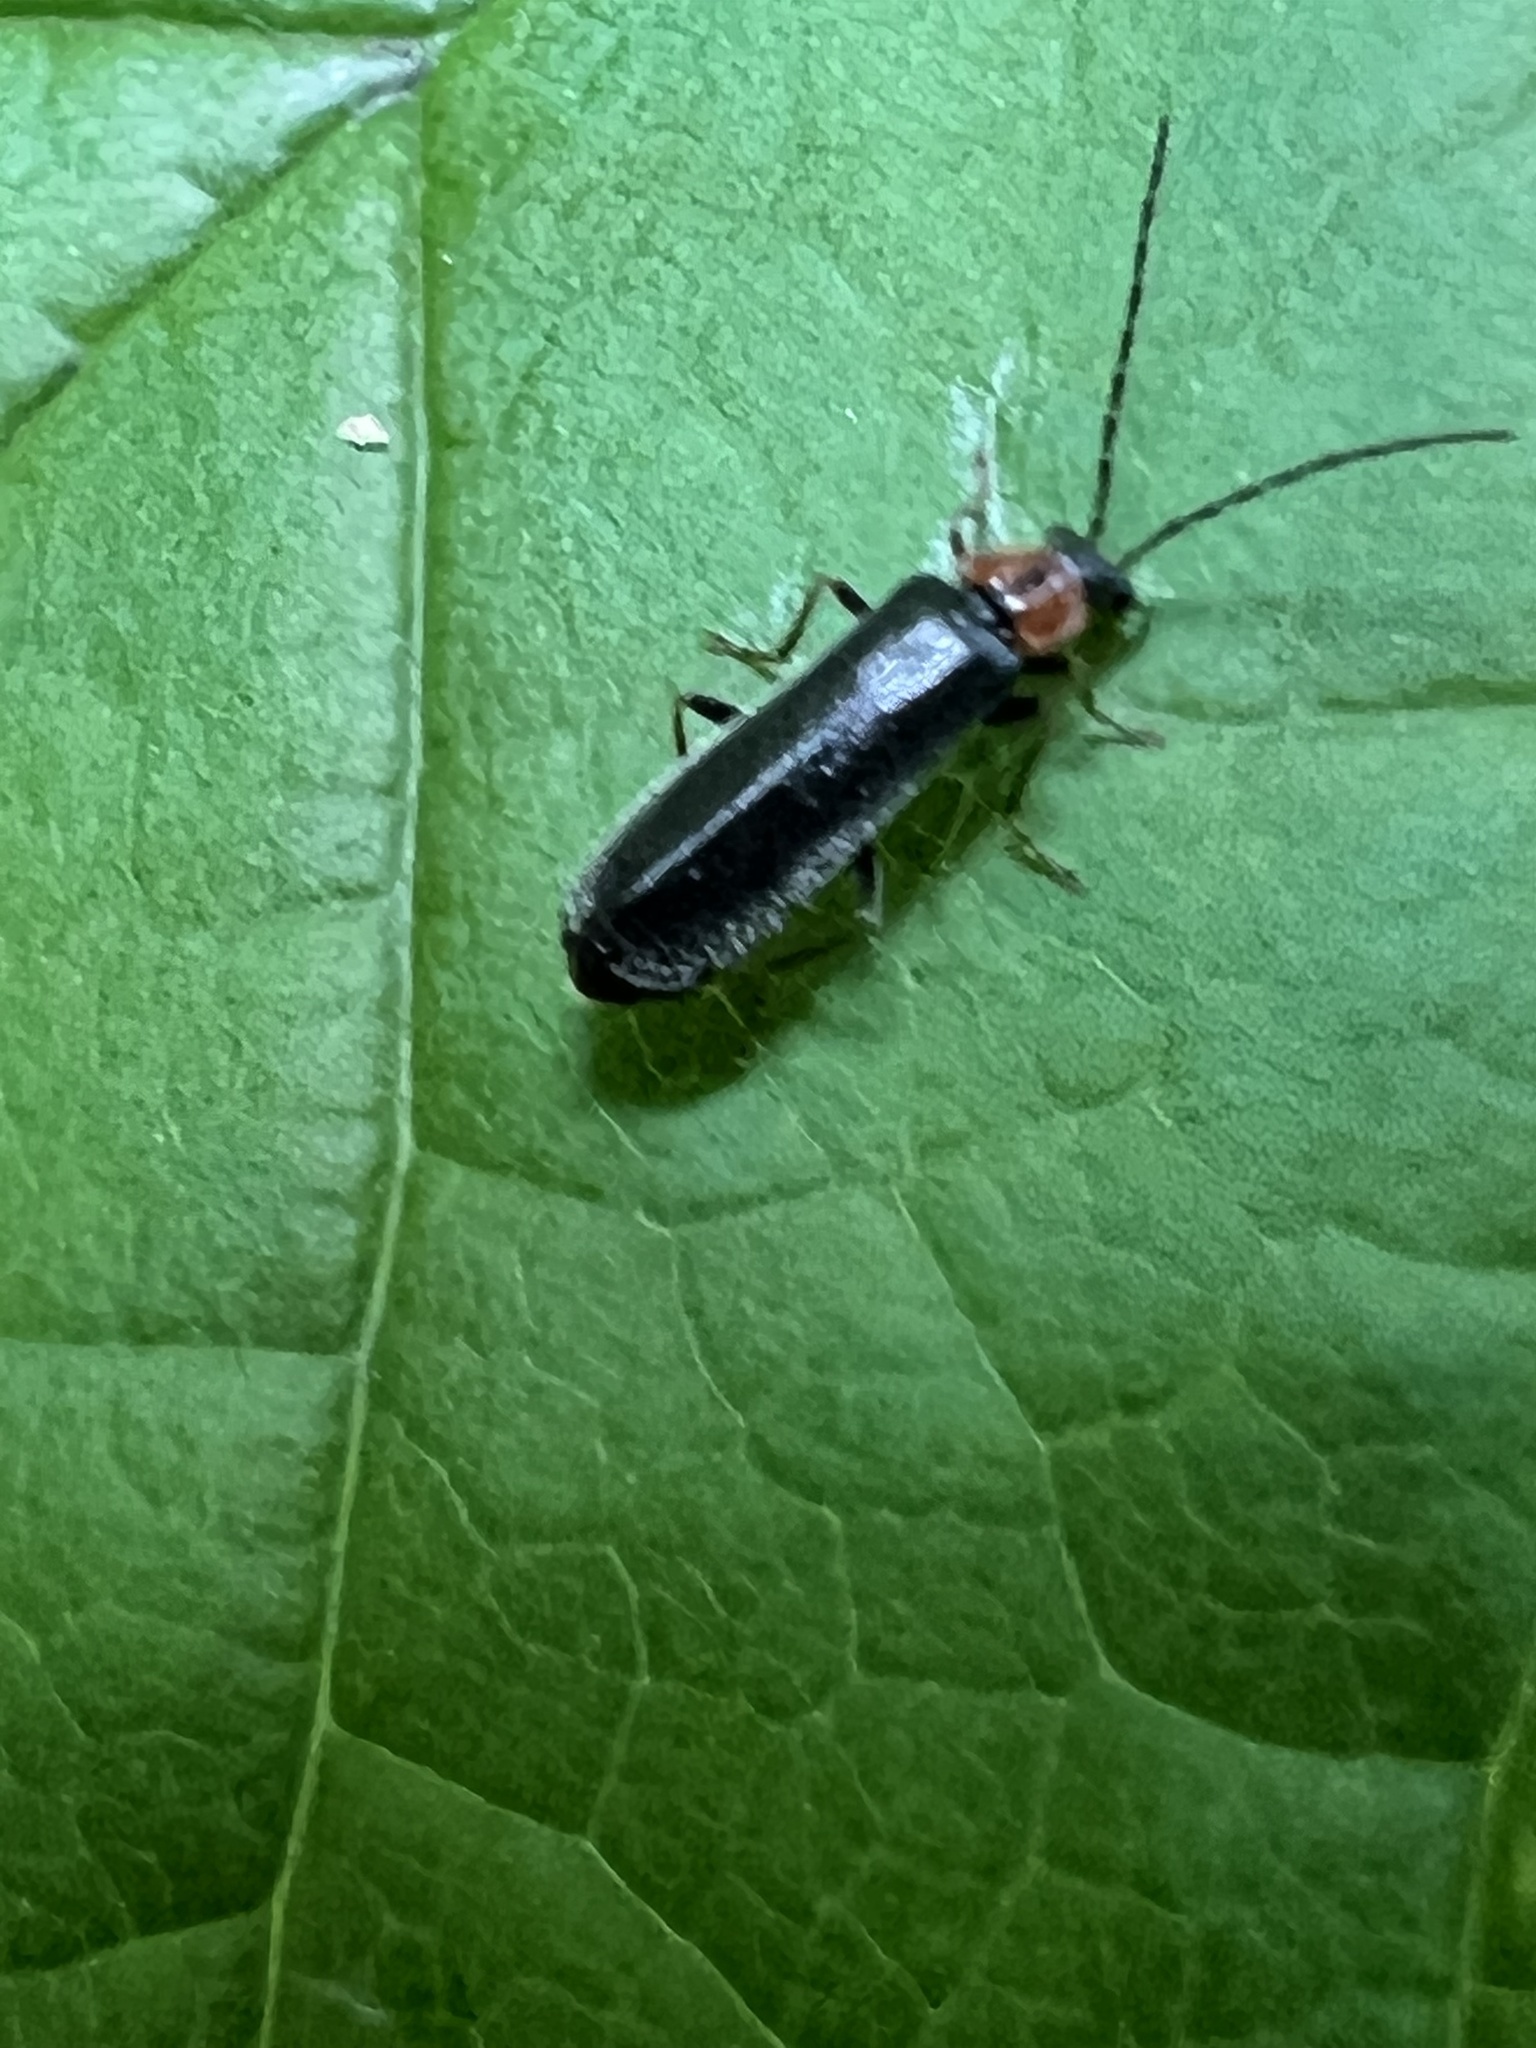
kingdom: Animalia
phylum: Arthropoda
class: Insecta
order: Coleoptera
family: Cantharidae
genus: Rhagonycha
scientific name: Rhagonycha excavata
